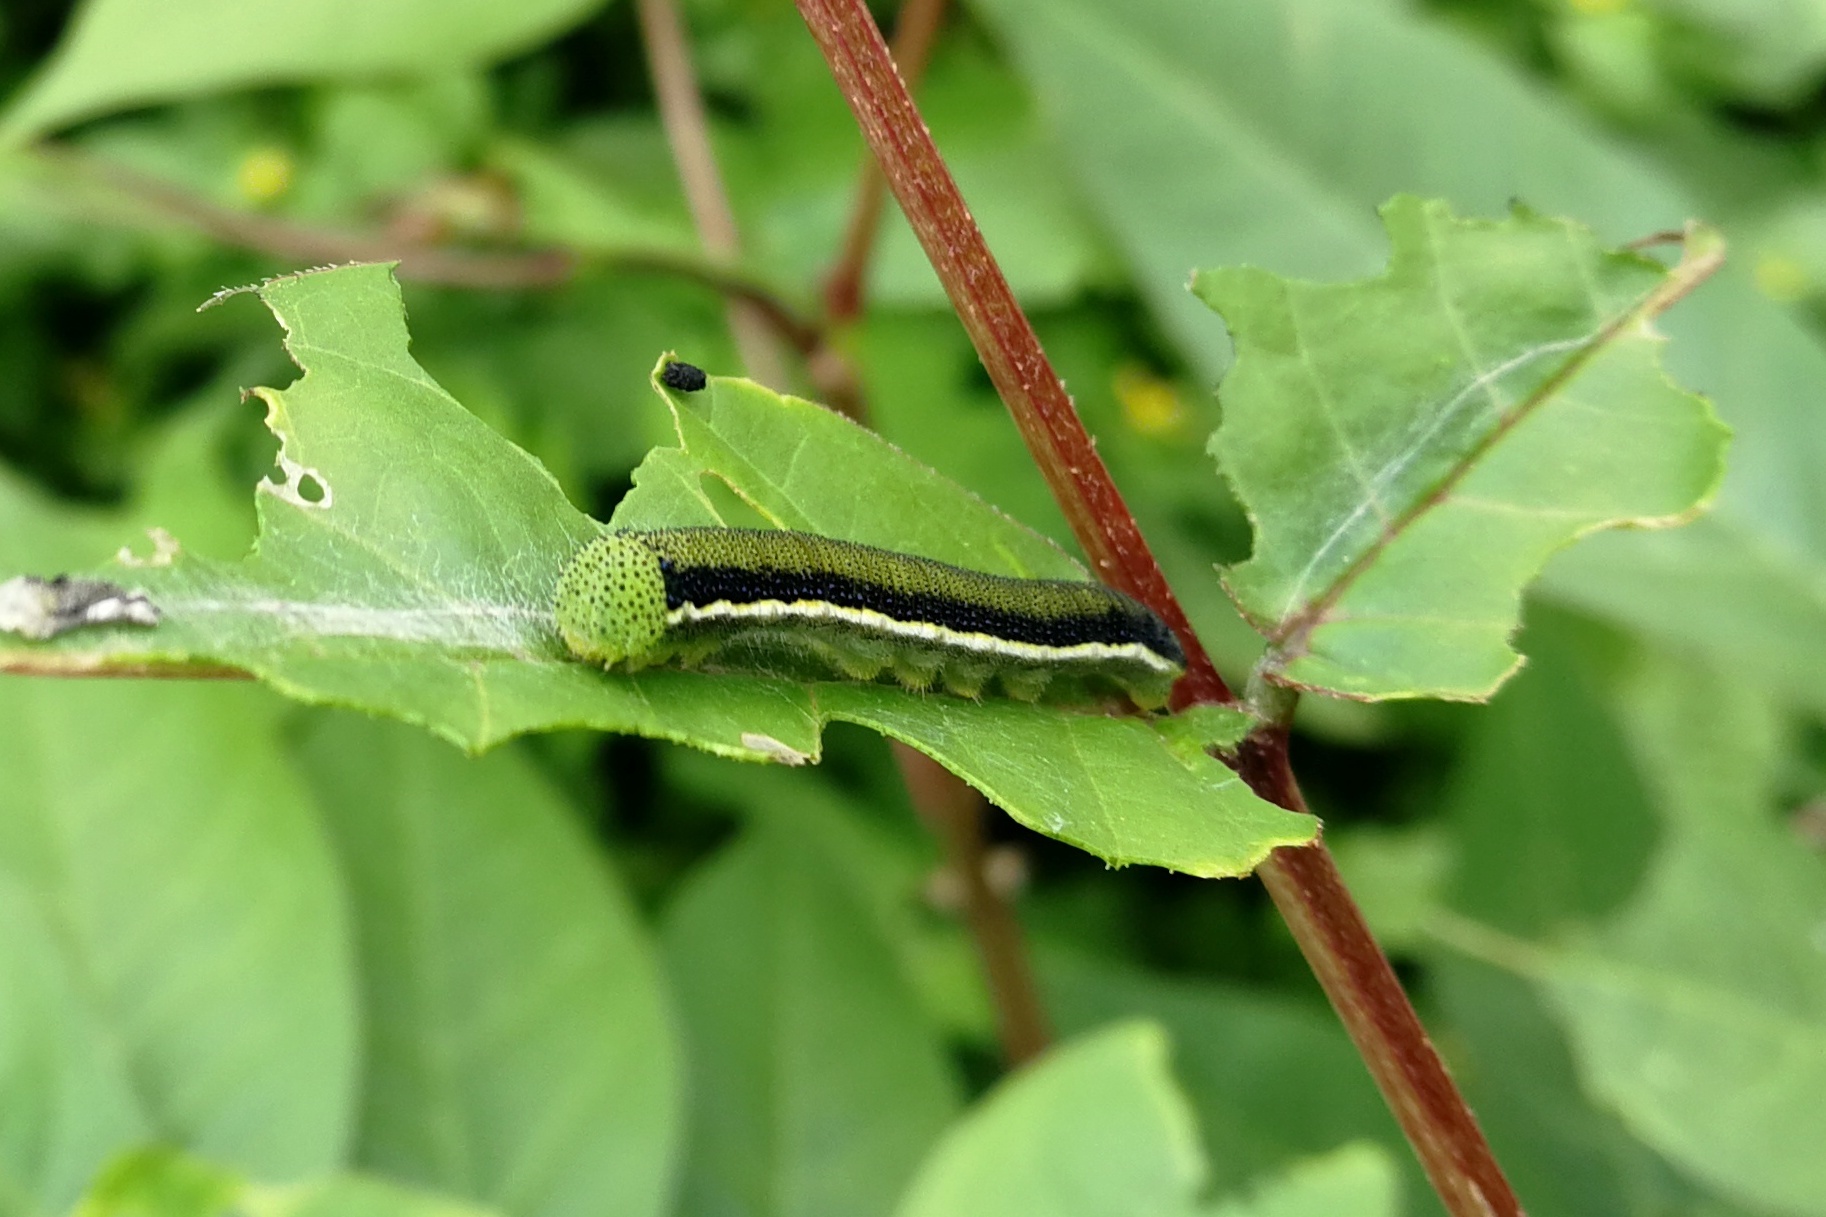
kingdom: Animalia
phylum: Arthropoda
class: Insecta
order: Lepidoptera
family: Pieridae
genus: Catopsilia
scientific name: Catopsilia pyranthe
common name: Mottled emigrant
